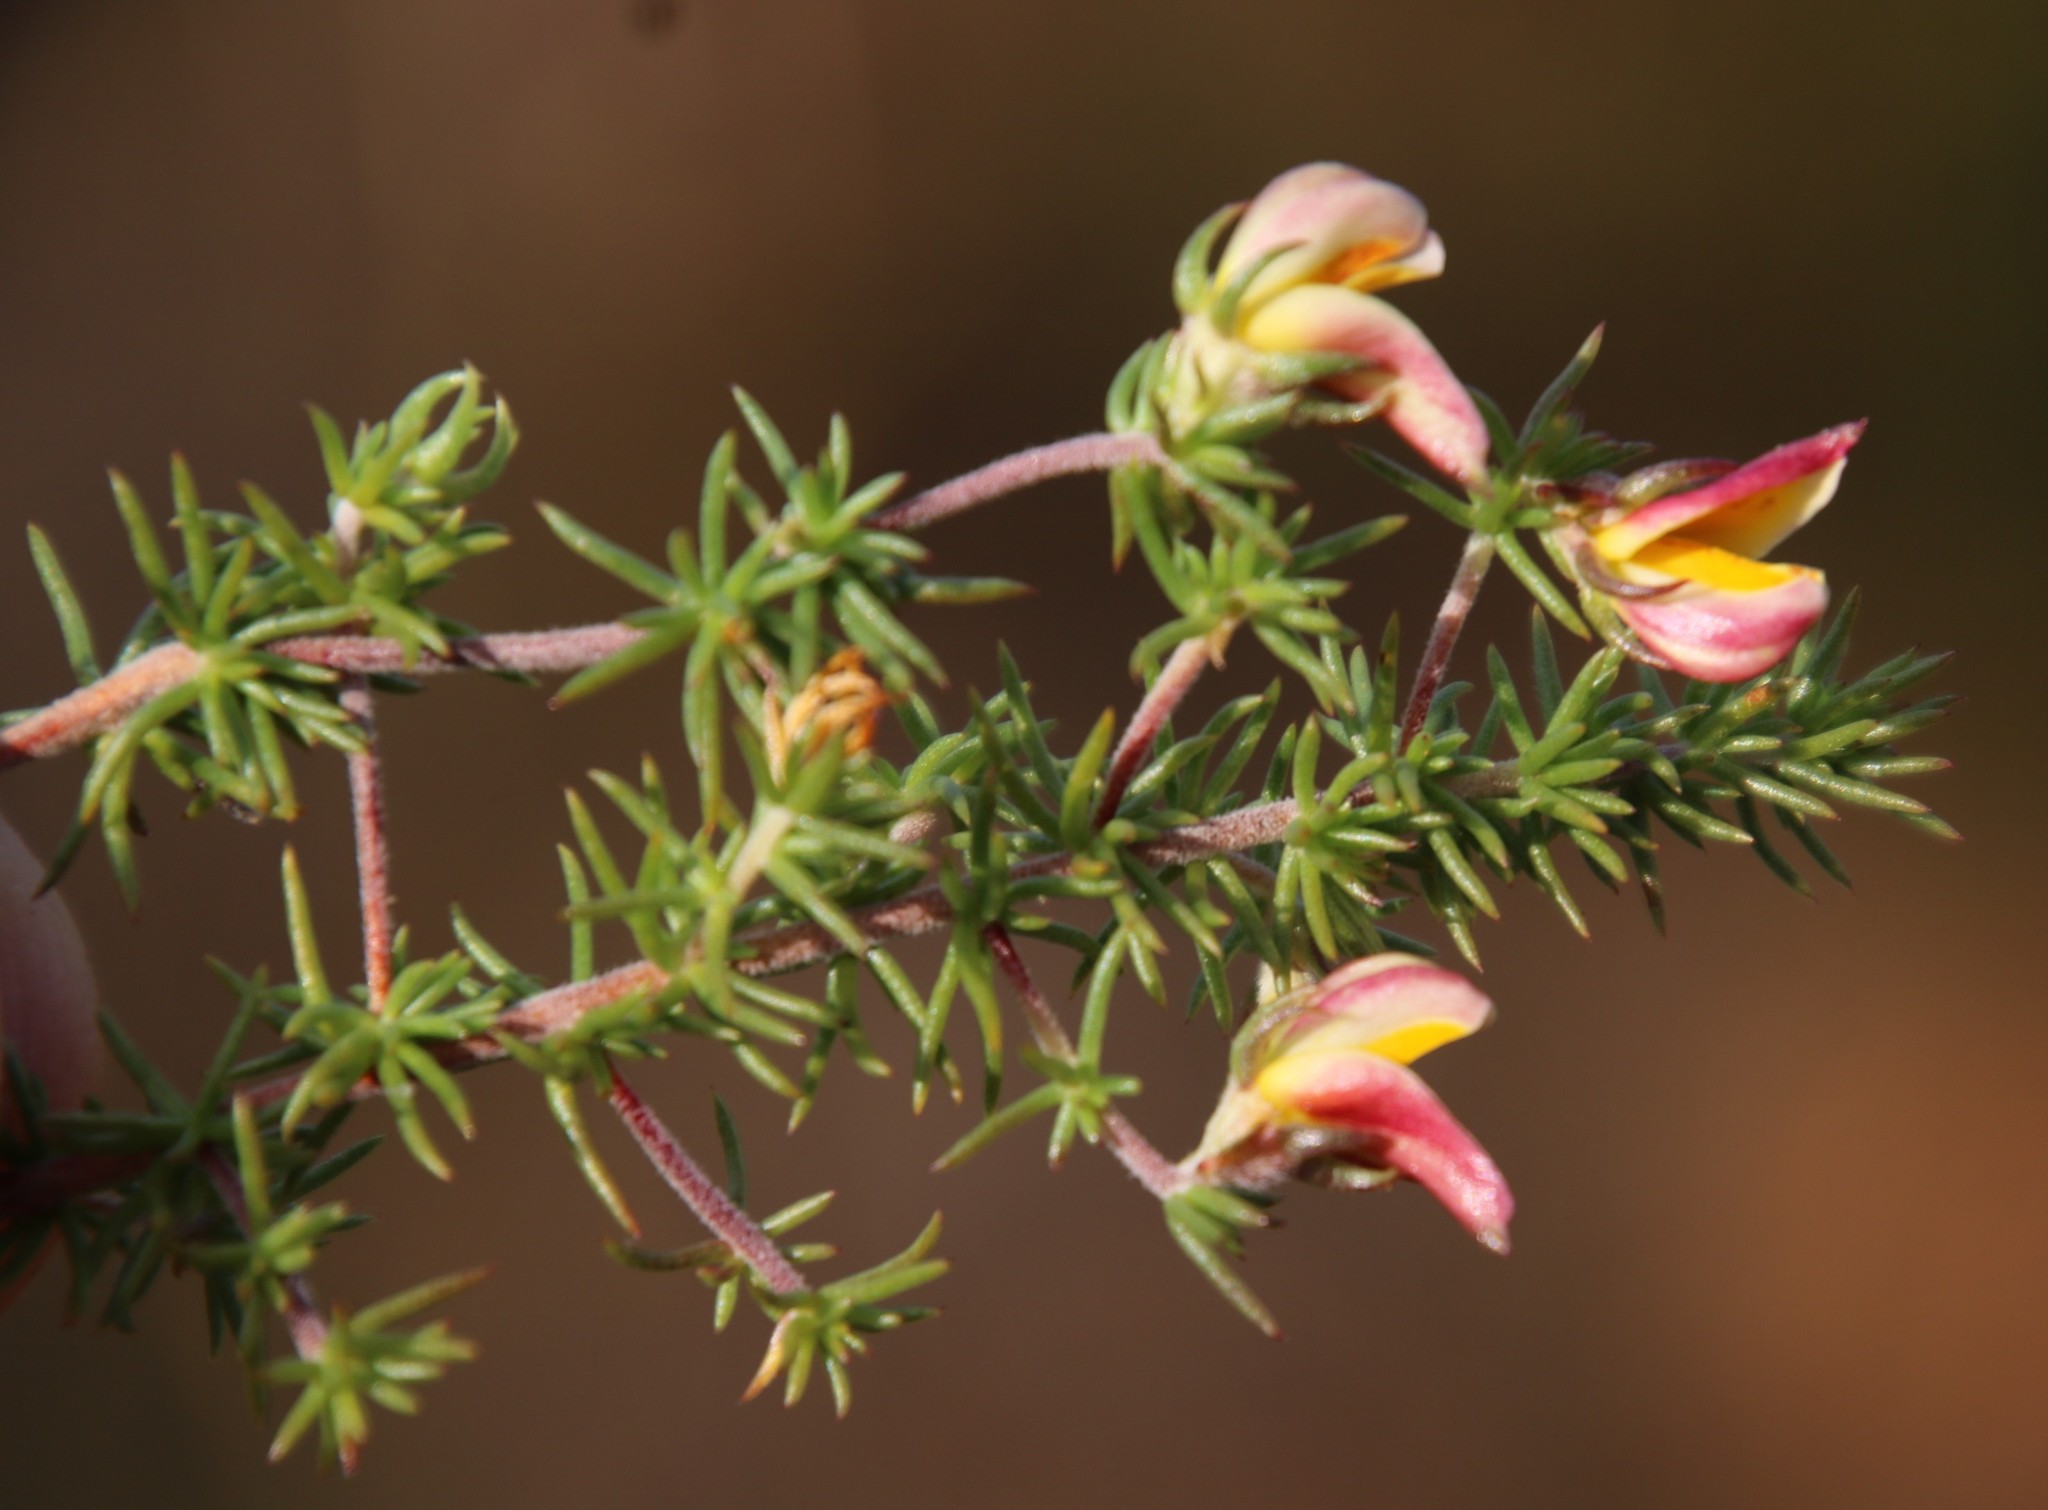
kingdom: Plantae
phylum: Tracheophyta
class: Magnoliopsida
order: Fabales
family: Fabaceae
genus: Aspalathus
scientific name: Aspalathus retroflexa
